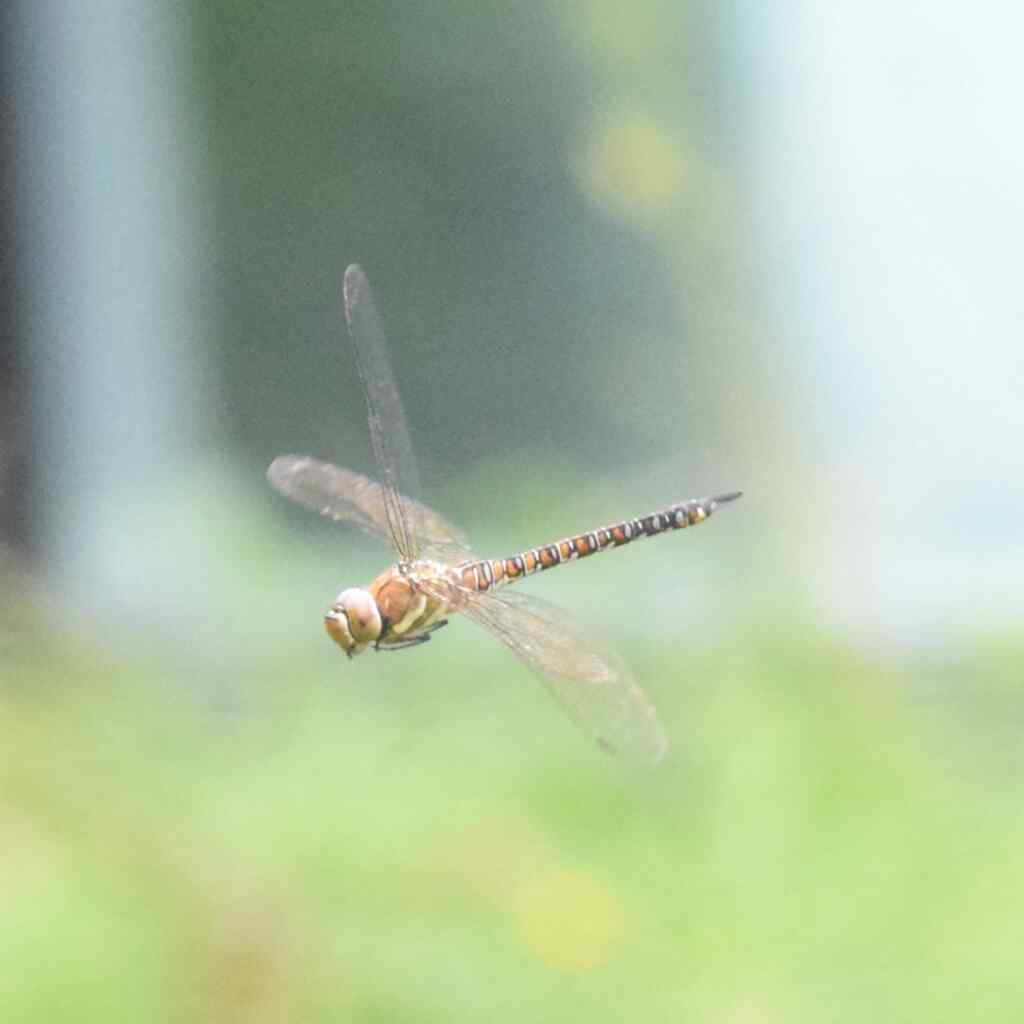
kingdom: Animalia
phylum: Arthropoda
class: Insecta
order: Odonata
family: Aeshnidae
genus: Aeshna
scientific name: Aeshna mixta
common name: Migrant hawker
